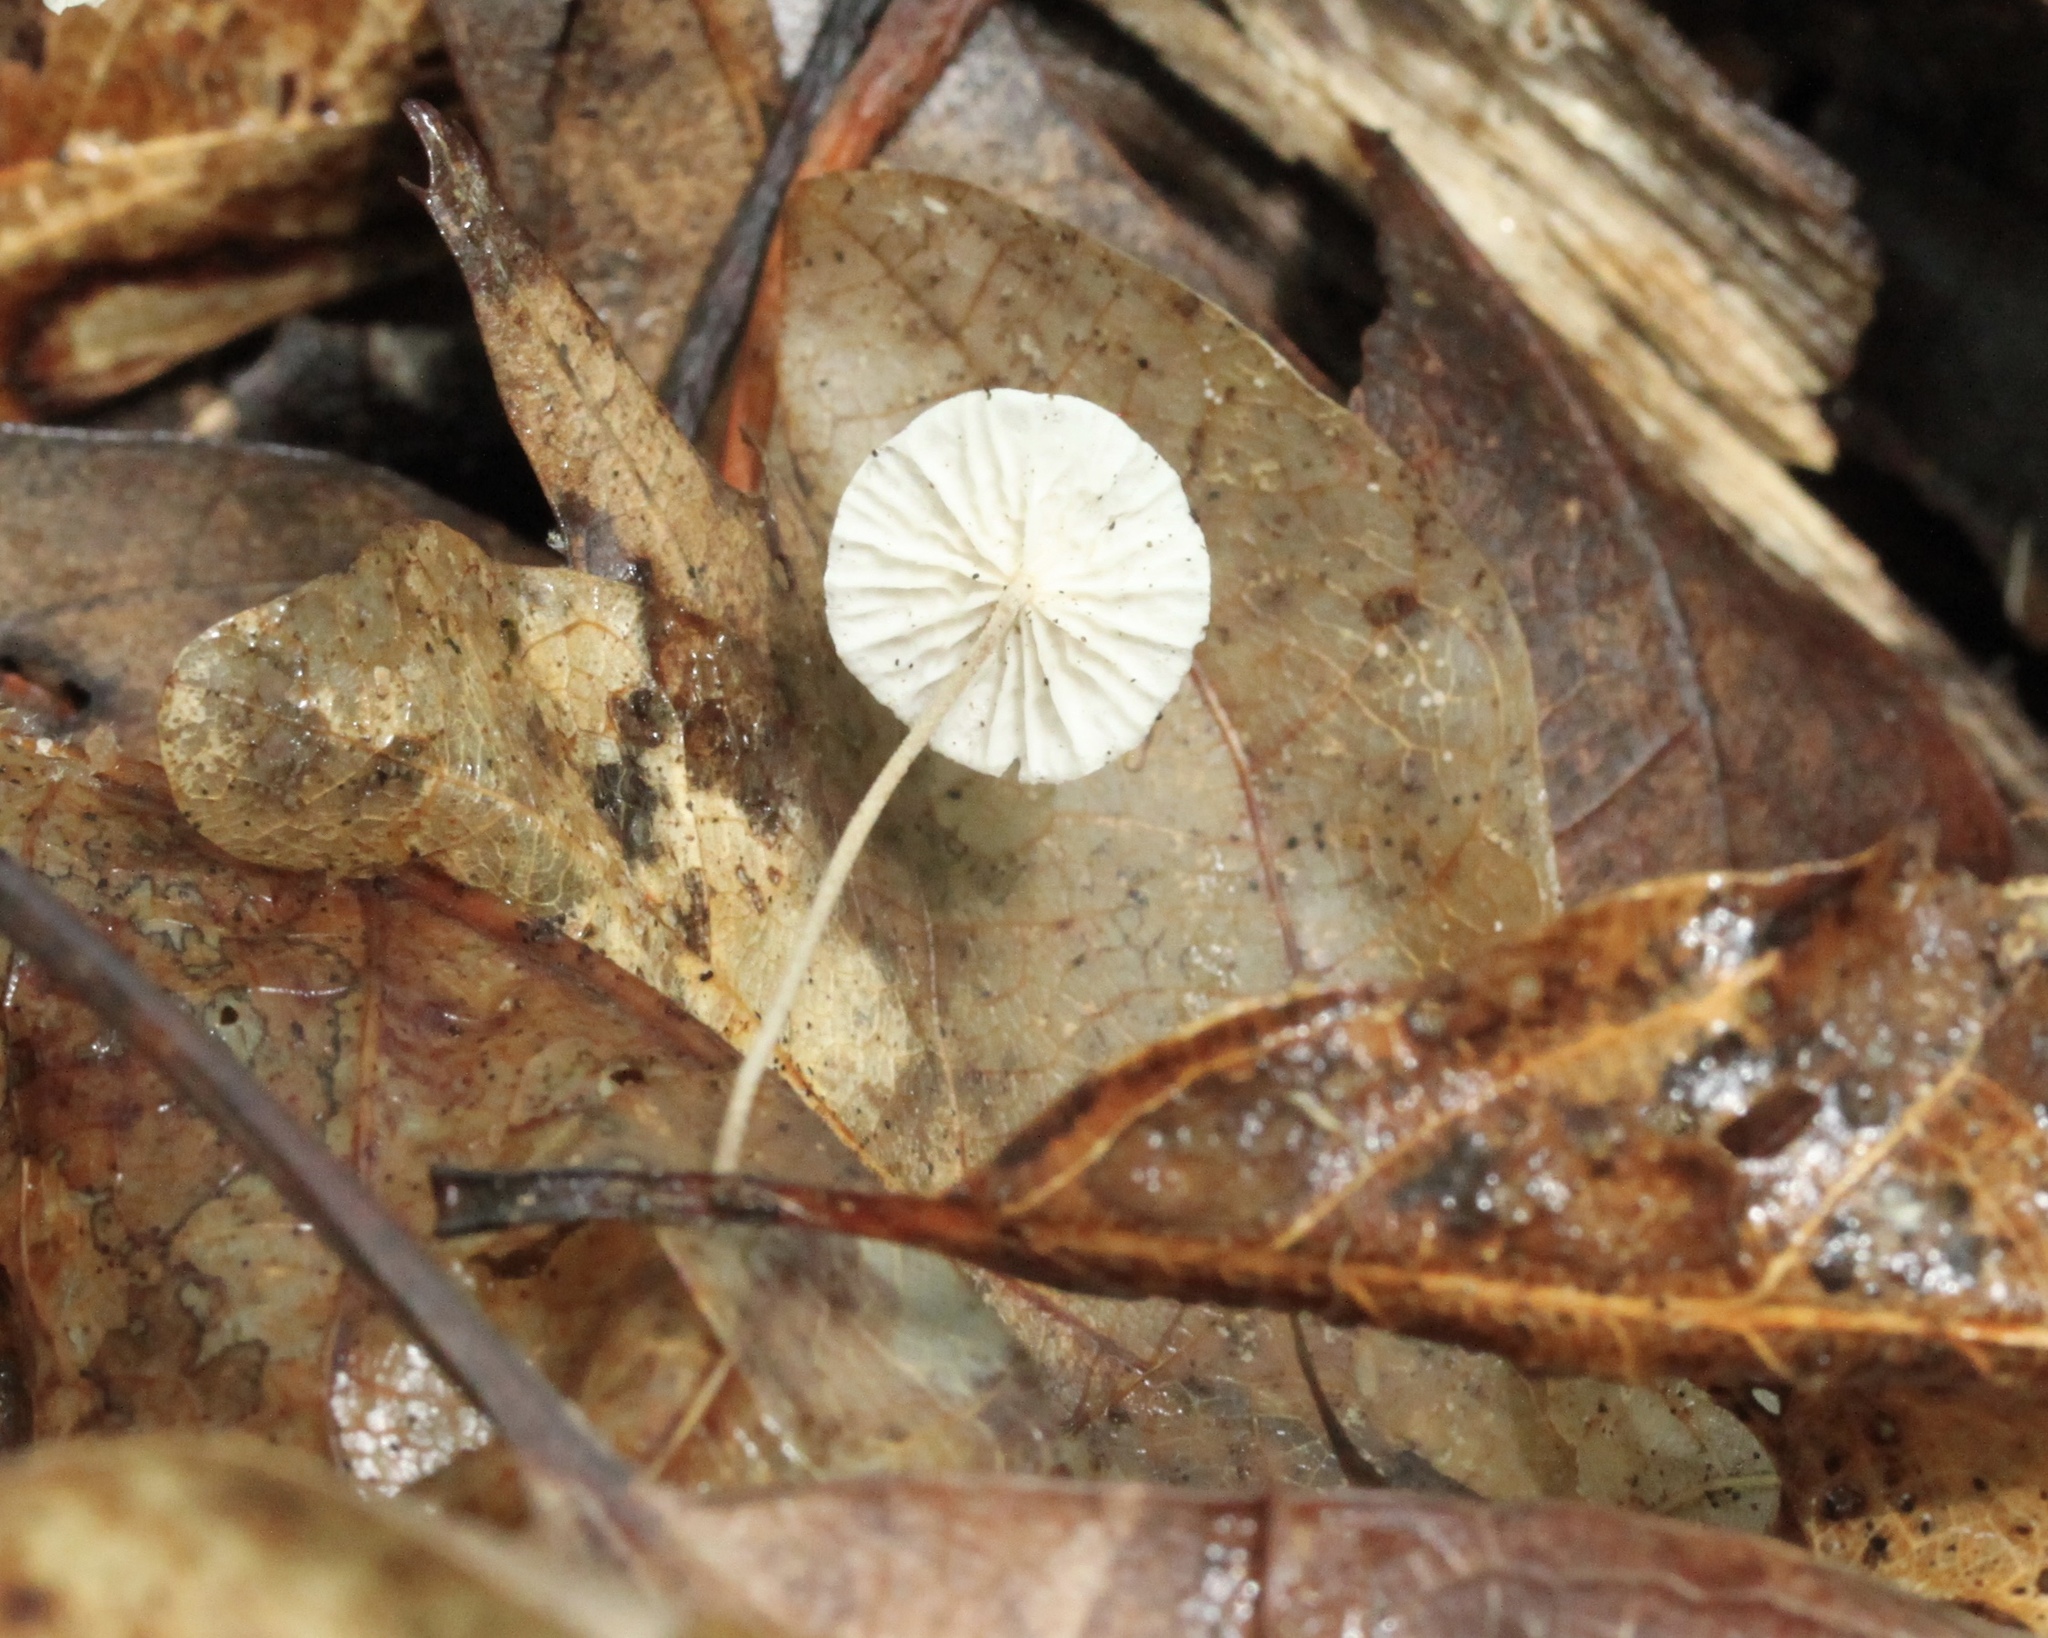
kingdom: Fungi
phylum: Basidiomycota
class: Agaricomycetes
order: Agaricales
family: Marasmiaceae
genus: Marasmius
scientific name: Marasmius capillaris
